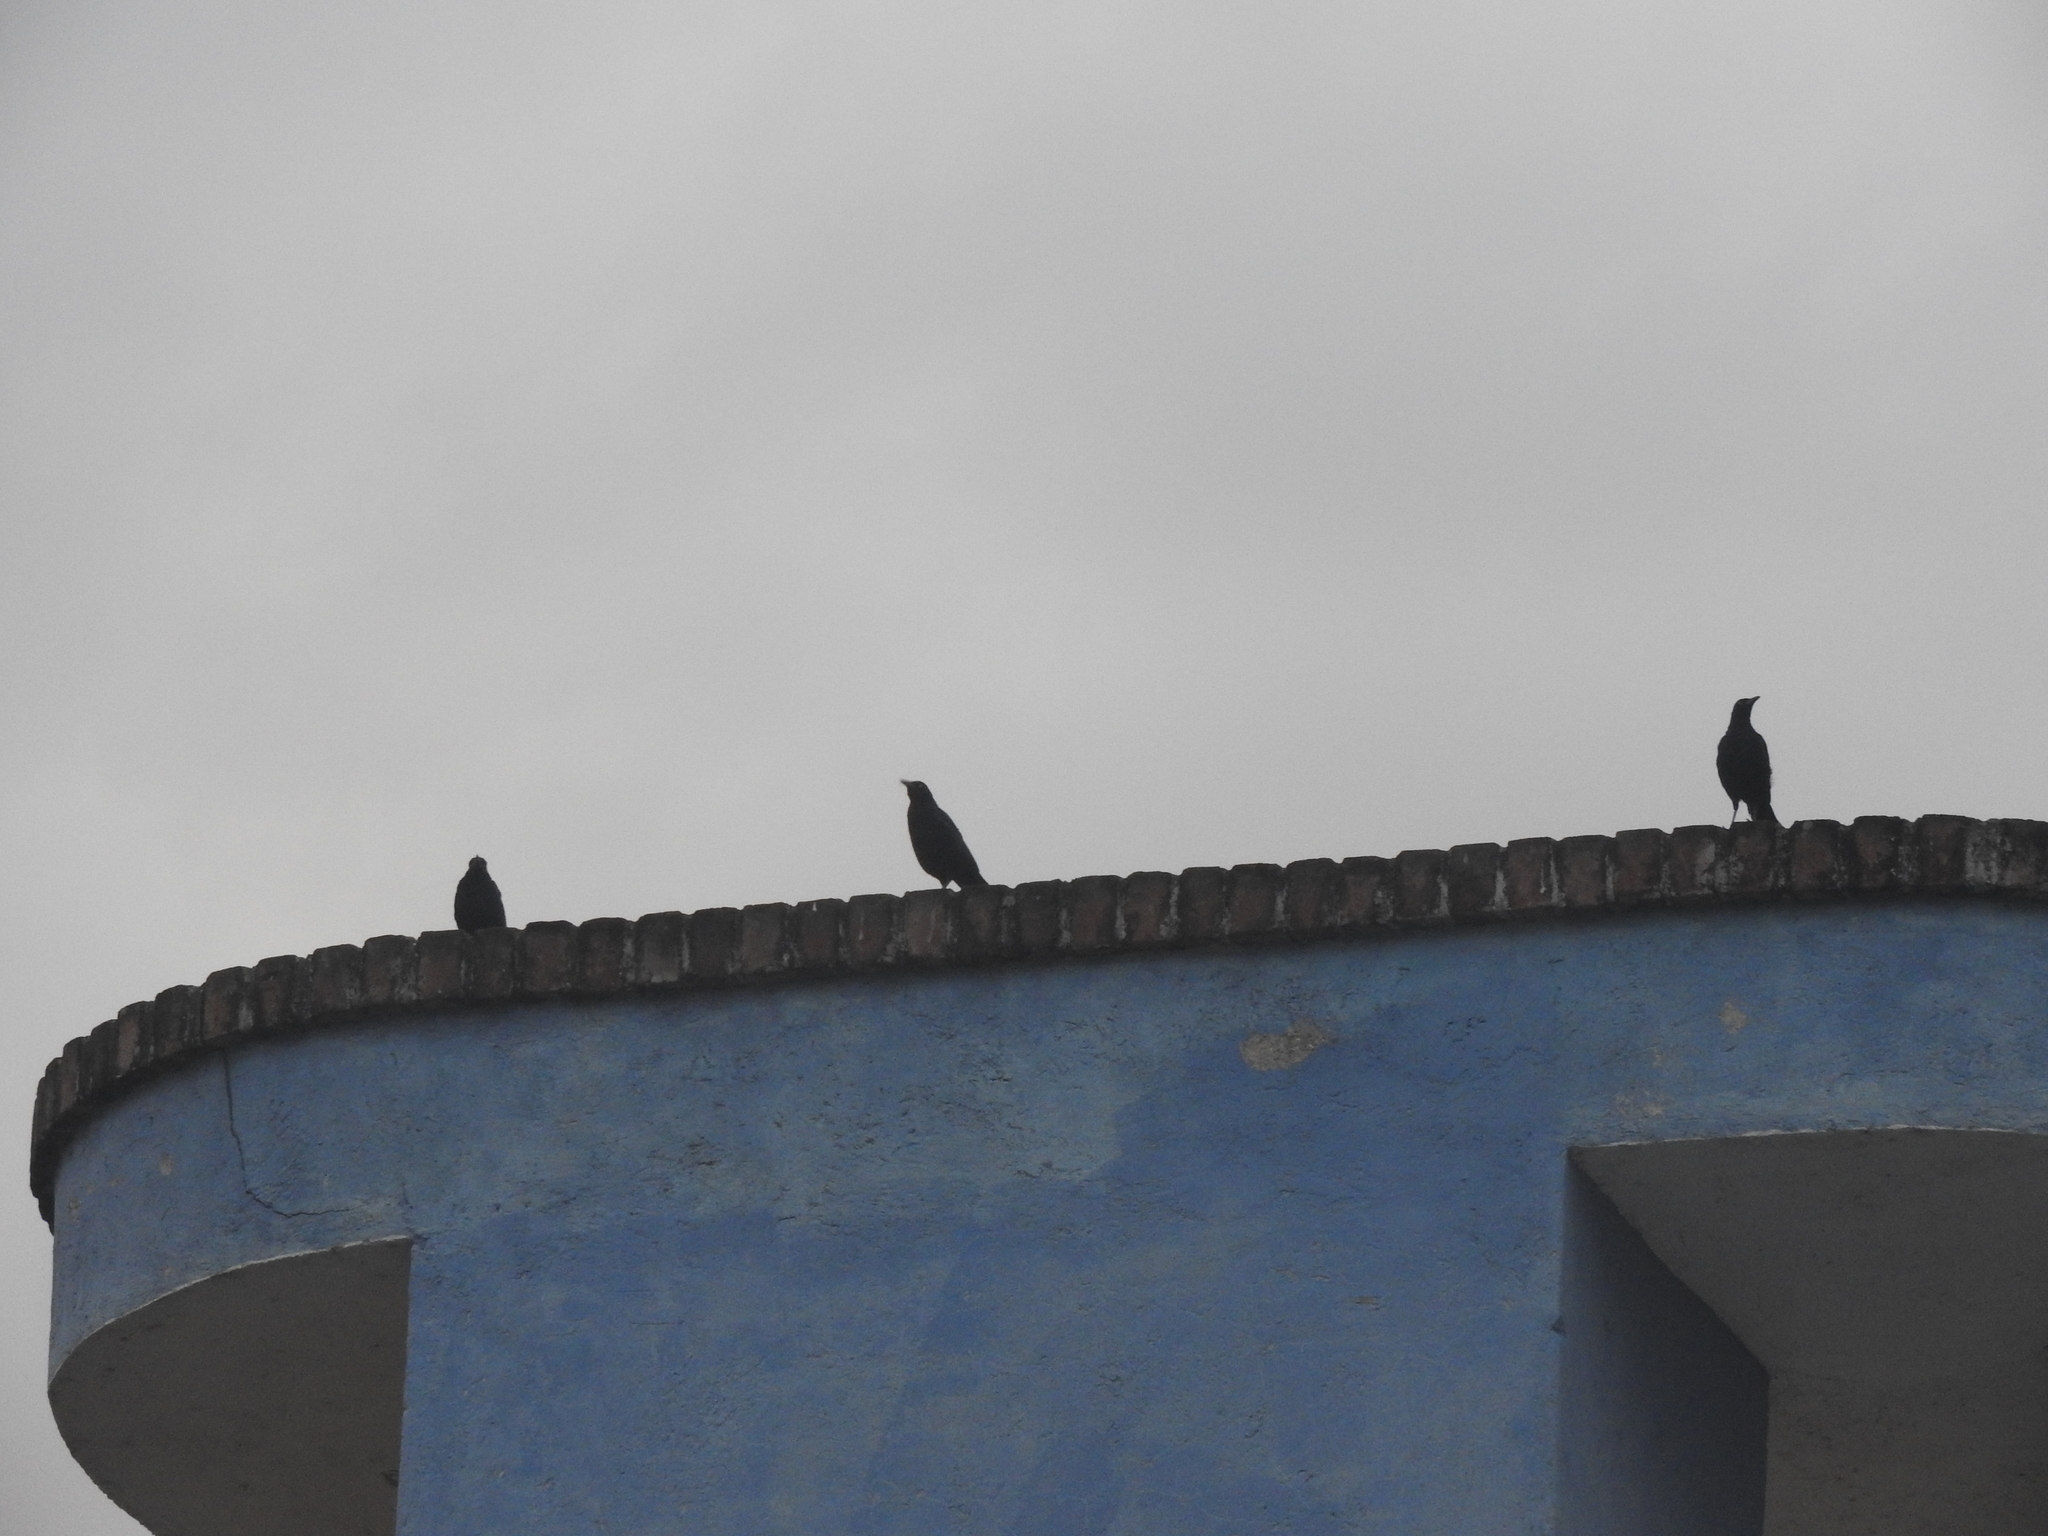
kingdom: Animalia
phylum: Chordata
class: Aves
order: Passeriformes
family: Icteridae
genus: Quiscalus
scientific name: Quiscalus mexicanus
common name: Great-tailed grackle
